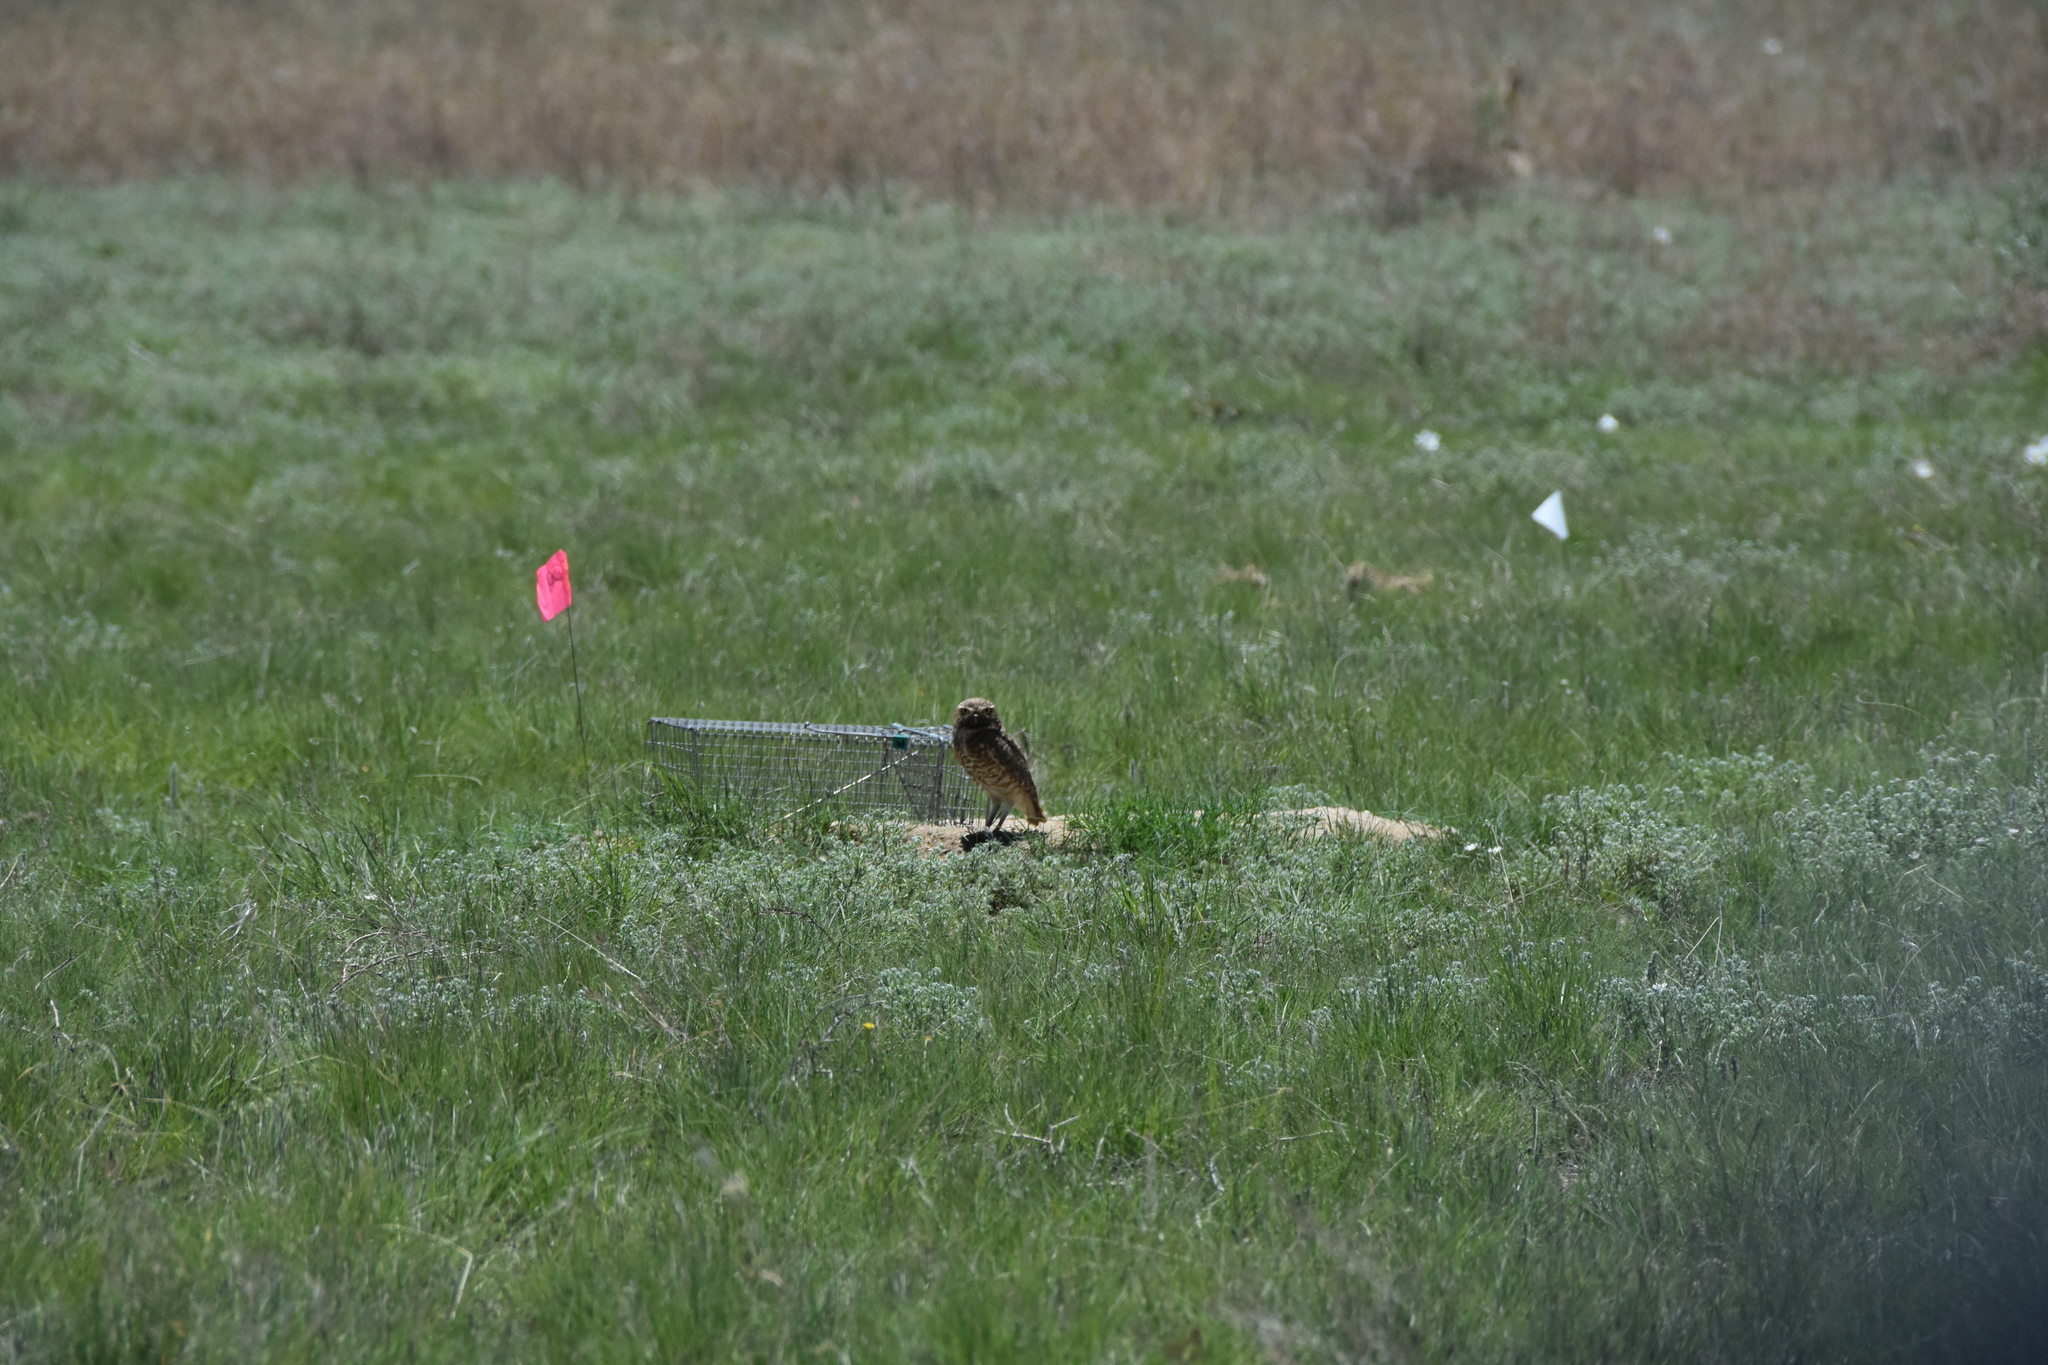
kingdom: Animalia
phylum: Chordata
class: Aves
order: Strigiformes
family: Strigidae
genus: Athene
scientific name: Athene cunicularia
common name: Burrowing owl
